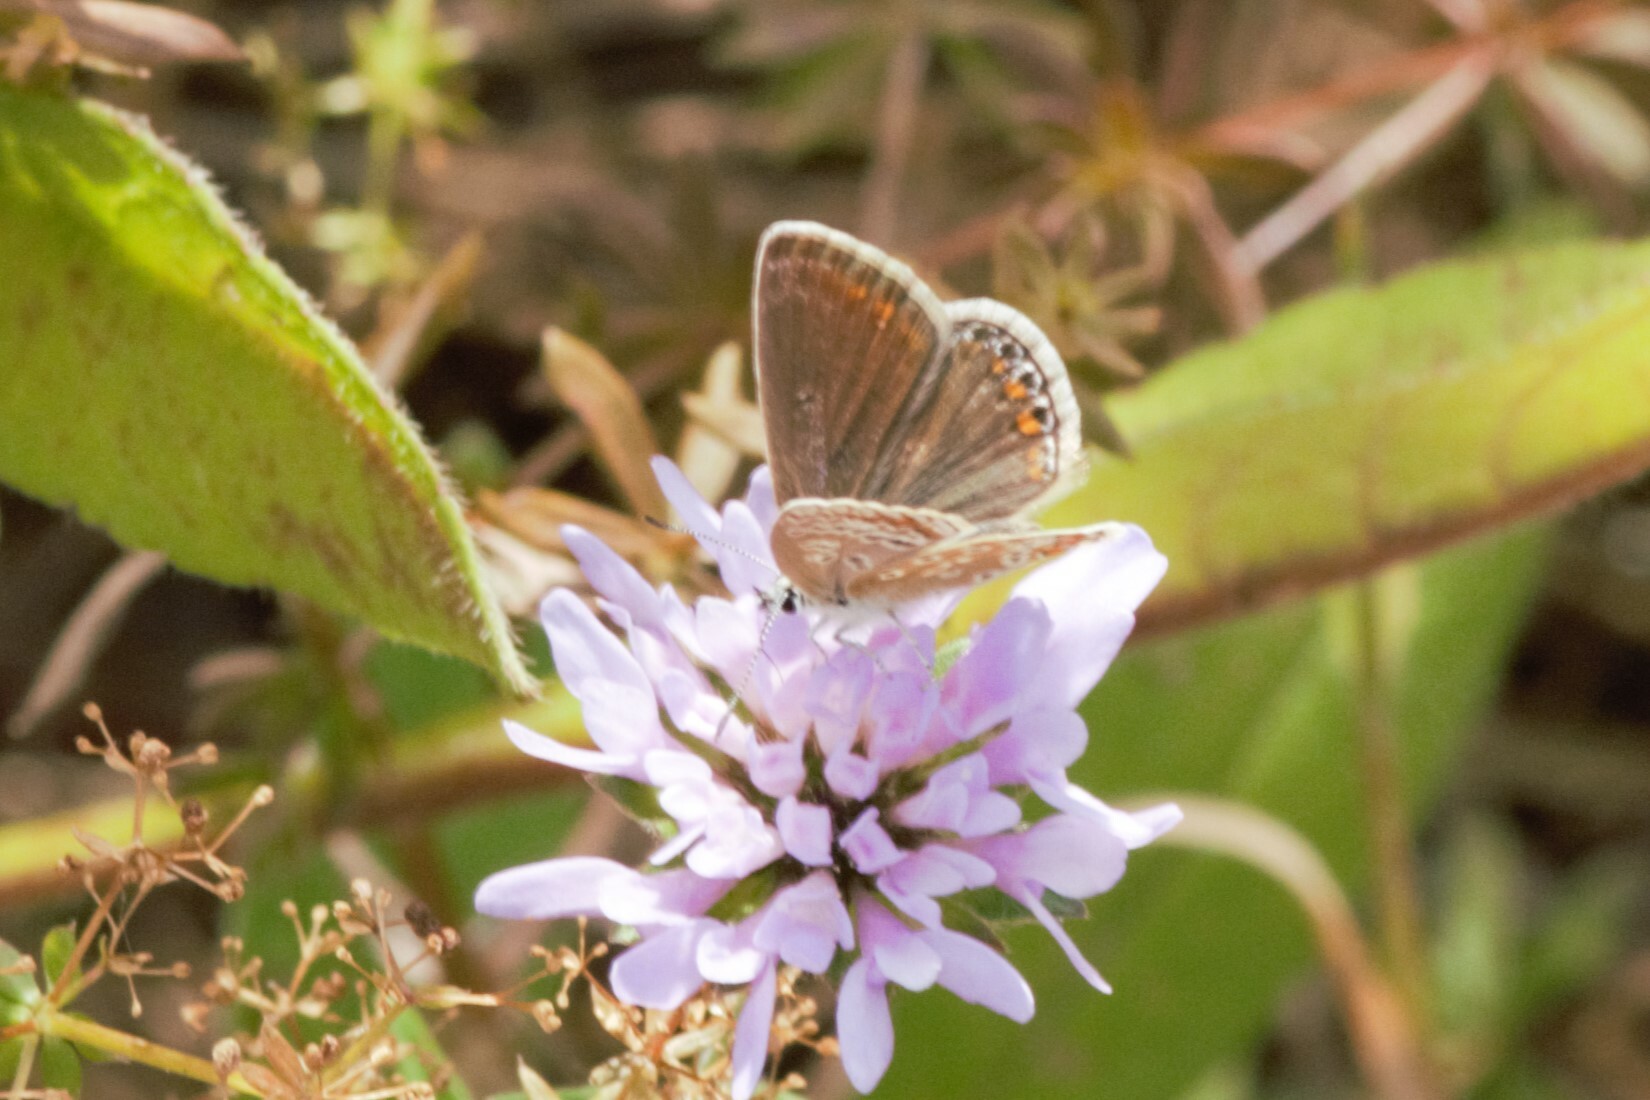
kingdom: Animalia
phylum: Arthropoda
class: Insecta
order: Lepidoptera
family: Lycaenidae
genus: Polyommatus
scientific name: Polyommatus icarus
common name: Common blue
